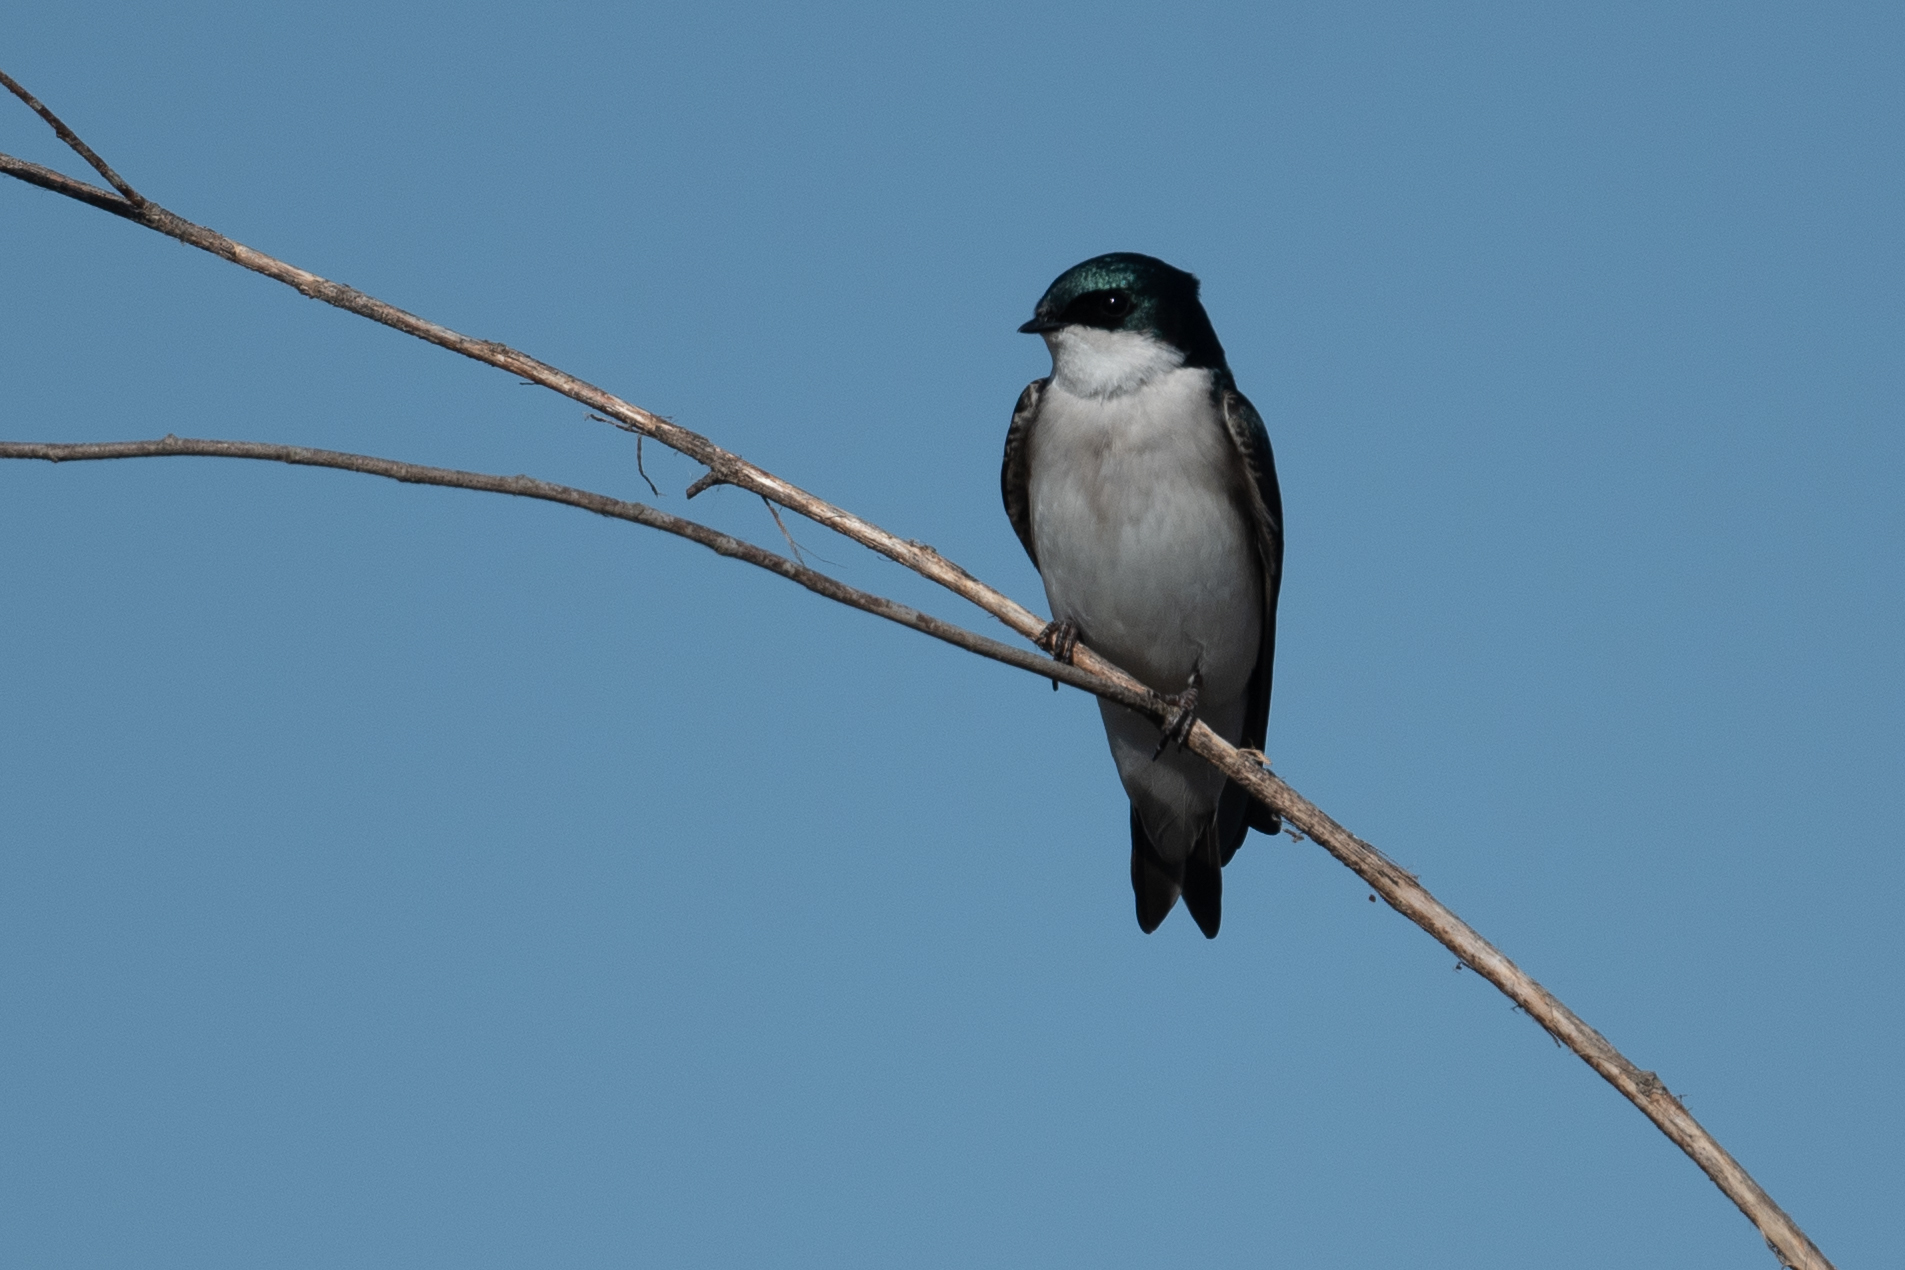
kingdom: Animalia
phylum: Chordata
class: Aves
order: Passeriformes
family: Hirundinidae
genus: Tachycineta
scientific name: Tachycineta bicolor
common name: Tree swallow
